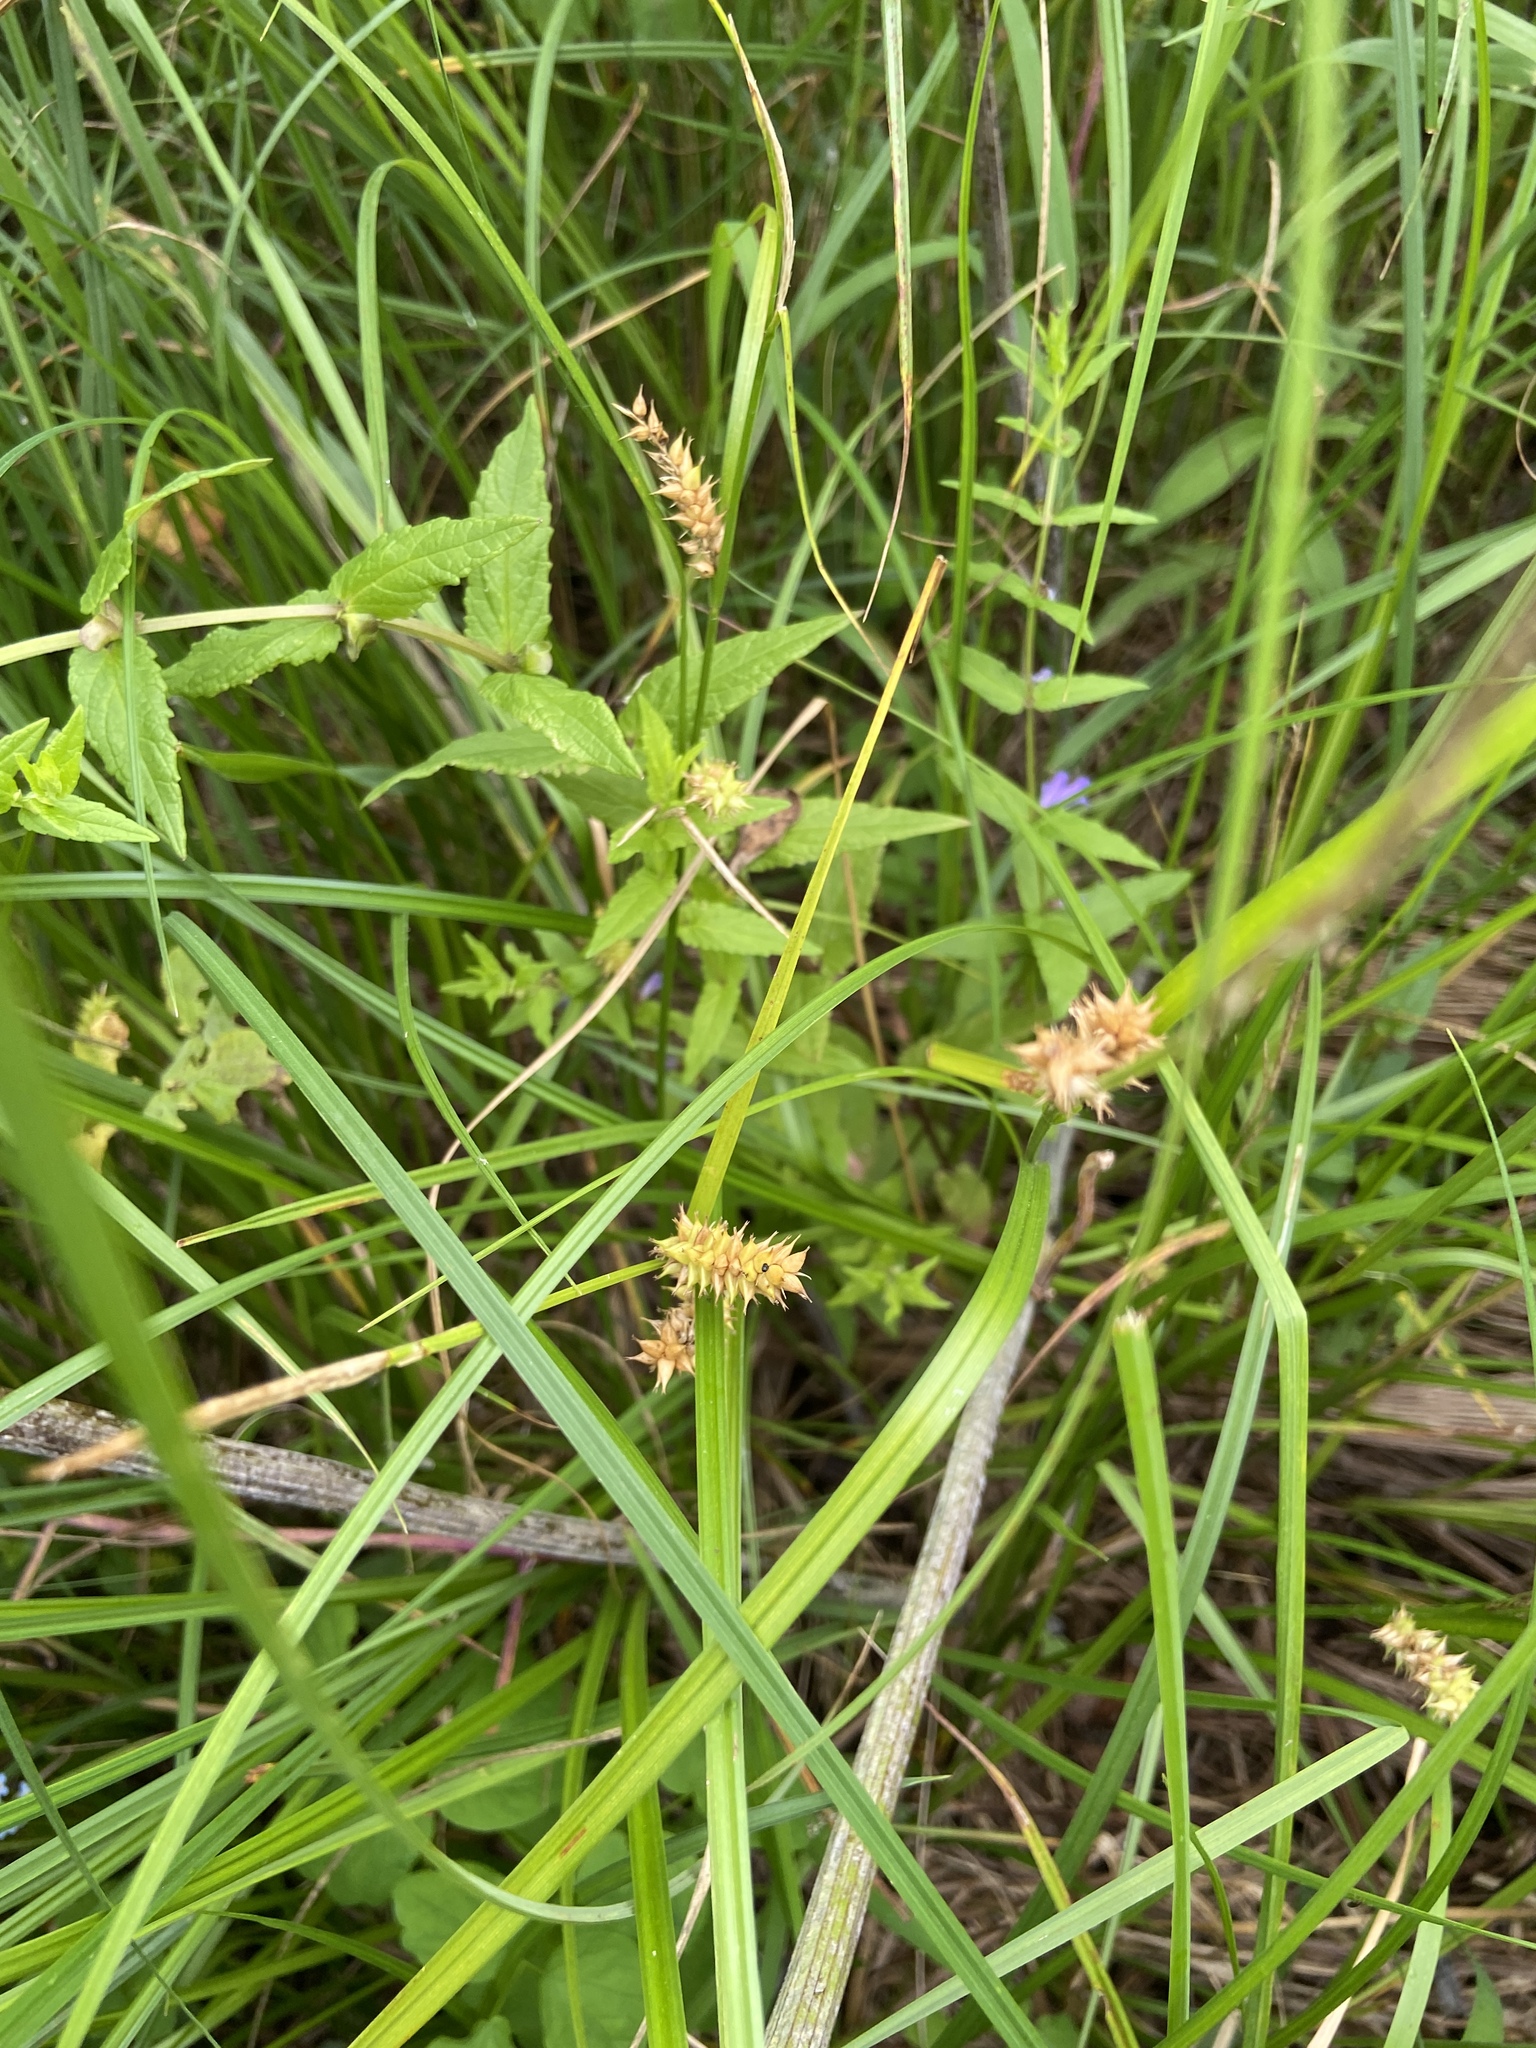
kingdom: Plantae
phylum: Tracheophyta
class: Liliopsida
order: Poales
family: Cyperaceae
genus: Carex
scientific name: Carex vesicaria
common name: Bladder-sedge
